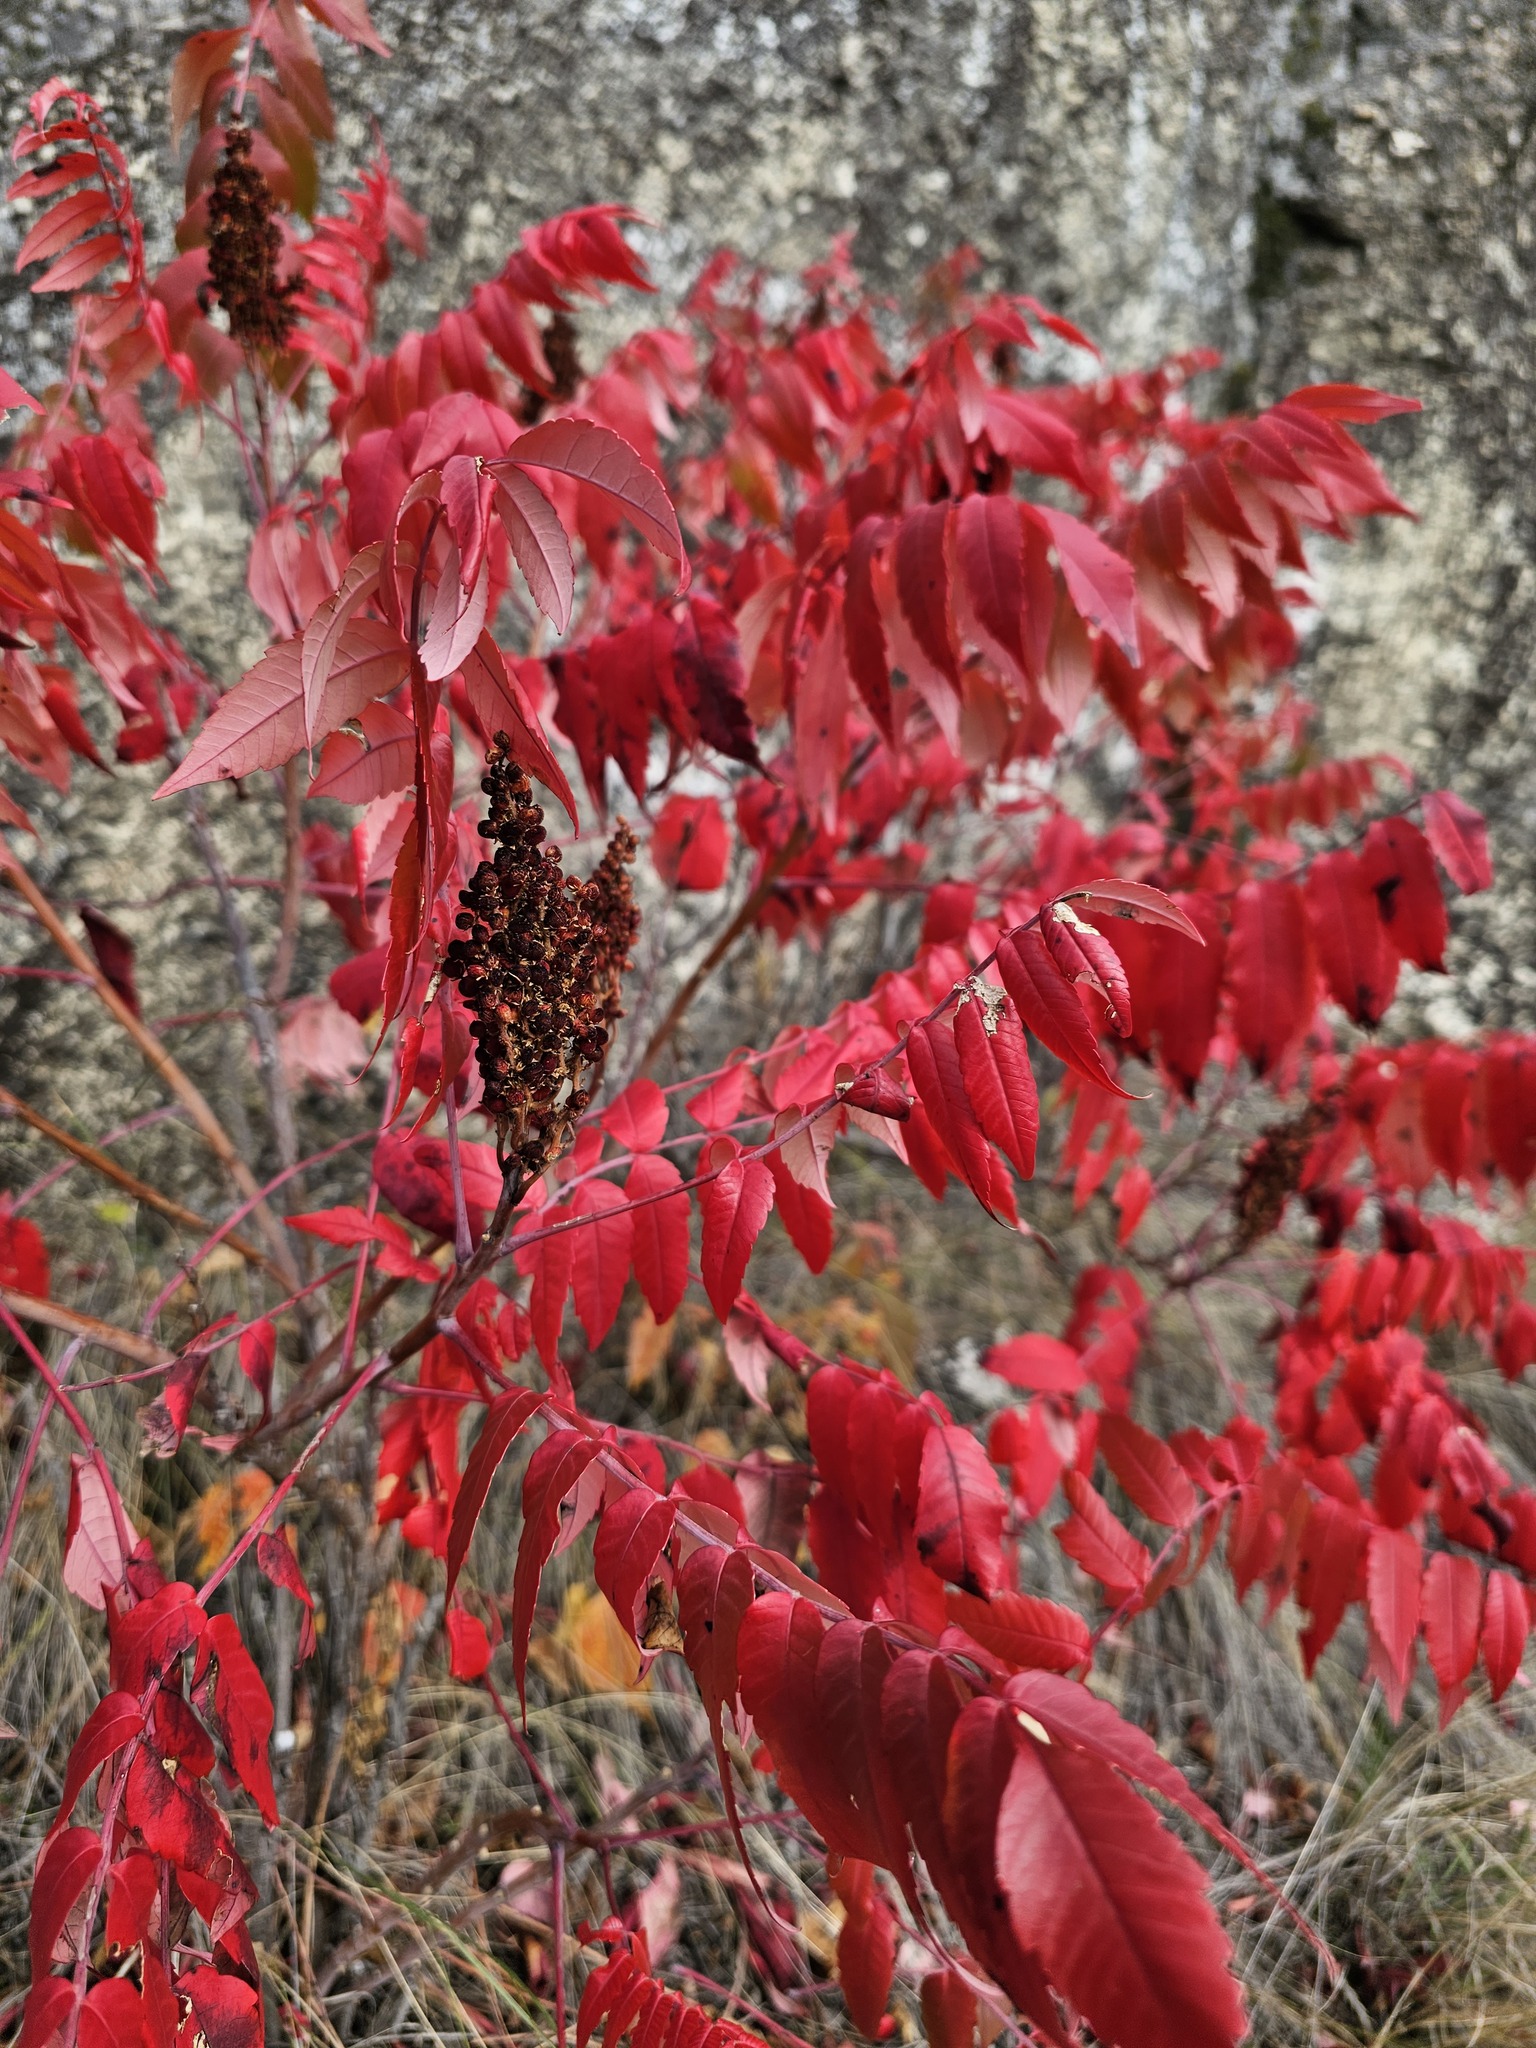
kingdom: Plantae
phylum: Tracheophyta
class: Magnoliopsida
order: Sapindales
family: Anacardiaceae
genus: Rhus
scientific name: Rhus glabra
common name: Scarlet sumac
